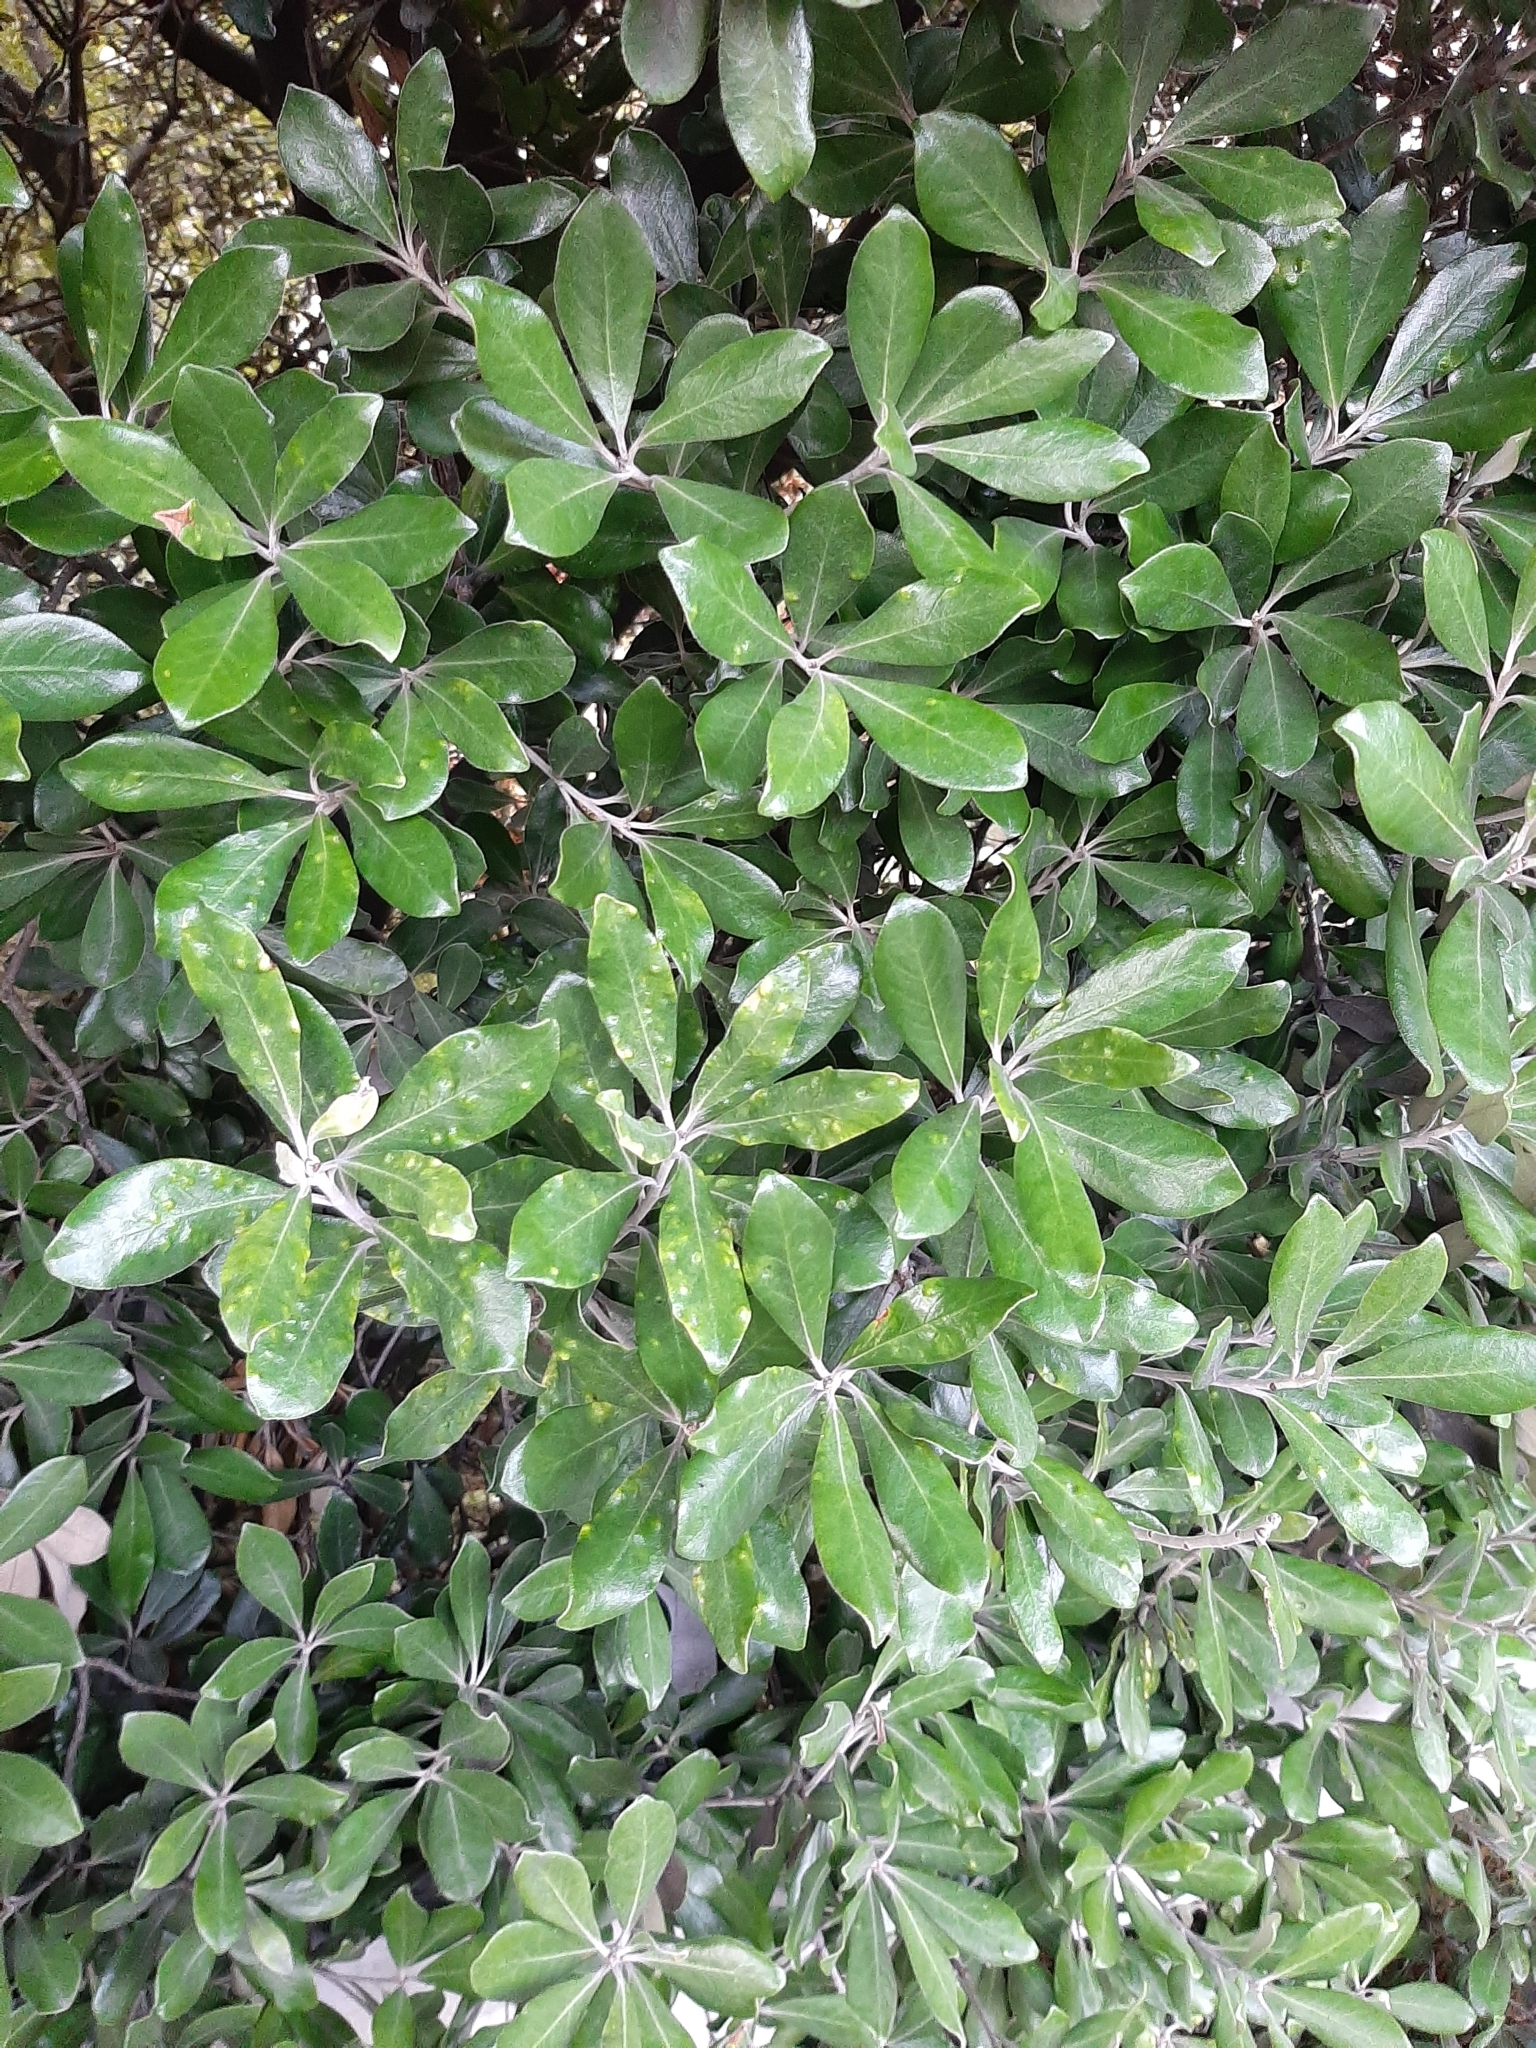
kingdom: Plantae
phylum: Tracheophyta
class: Magnoliopsida
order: Apiales
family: Pittosporaceae
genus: Pittosporum
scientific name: Pittosporum crassifolium
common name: Karo
